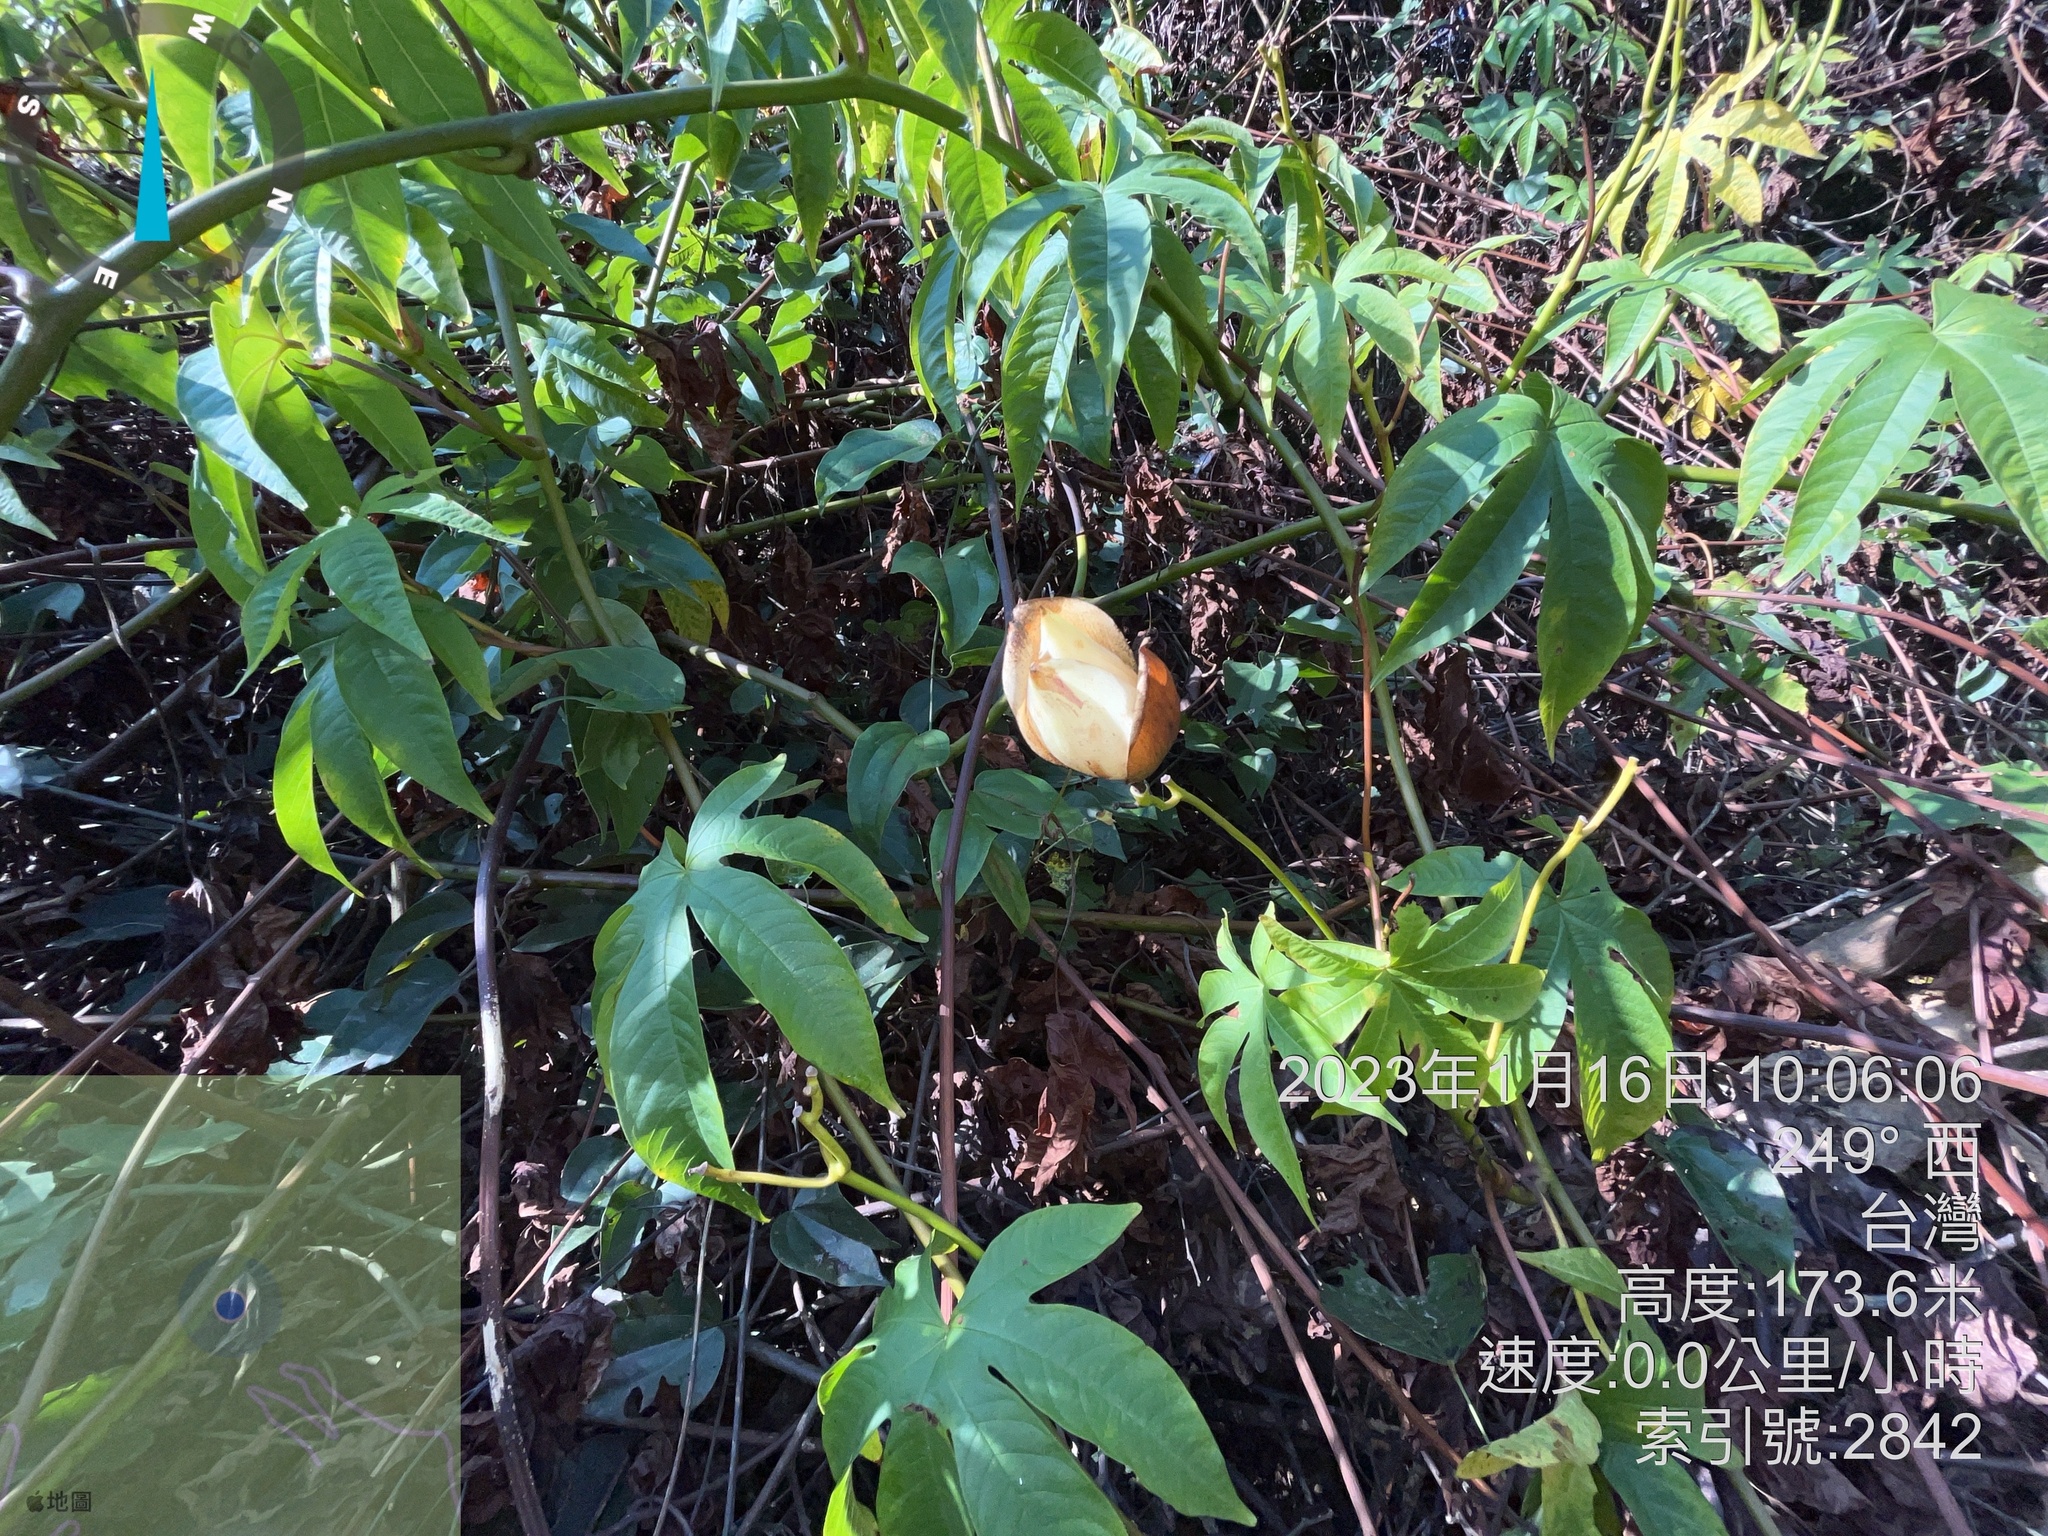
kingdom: Plantae
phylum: Tracheophyta
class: Magnoliopsida
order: Solanales
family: Convolvulaceae
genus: Distimake
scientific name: Distimake tuberosus
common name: Spanish arborvine
